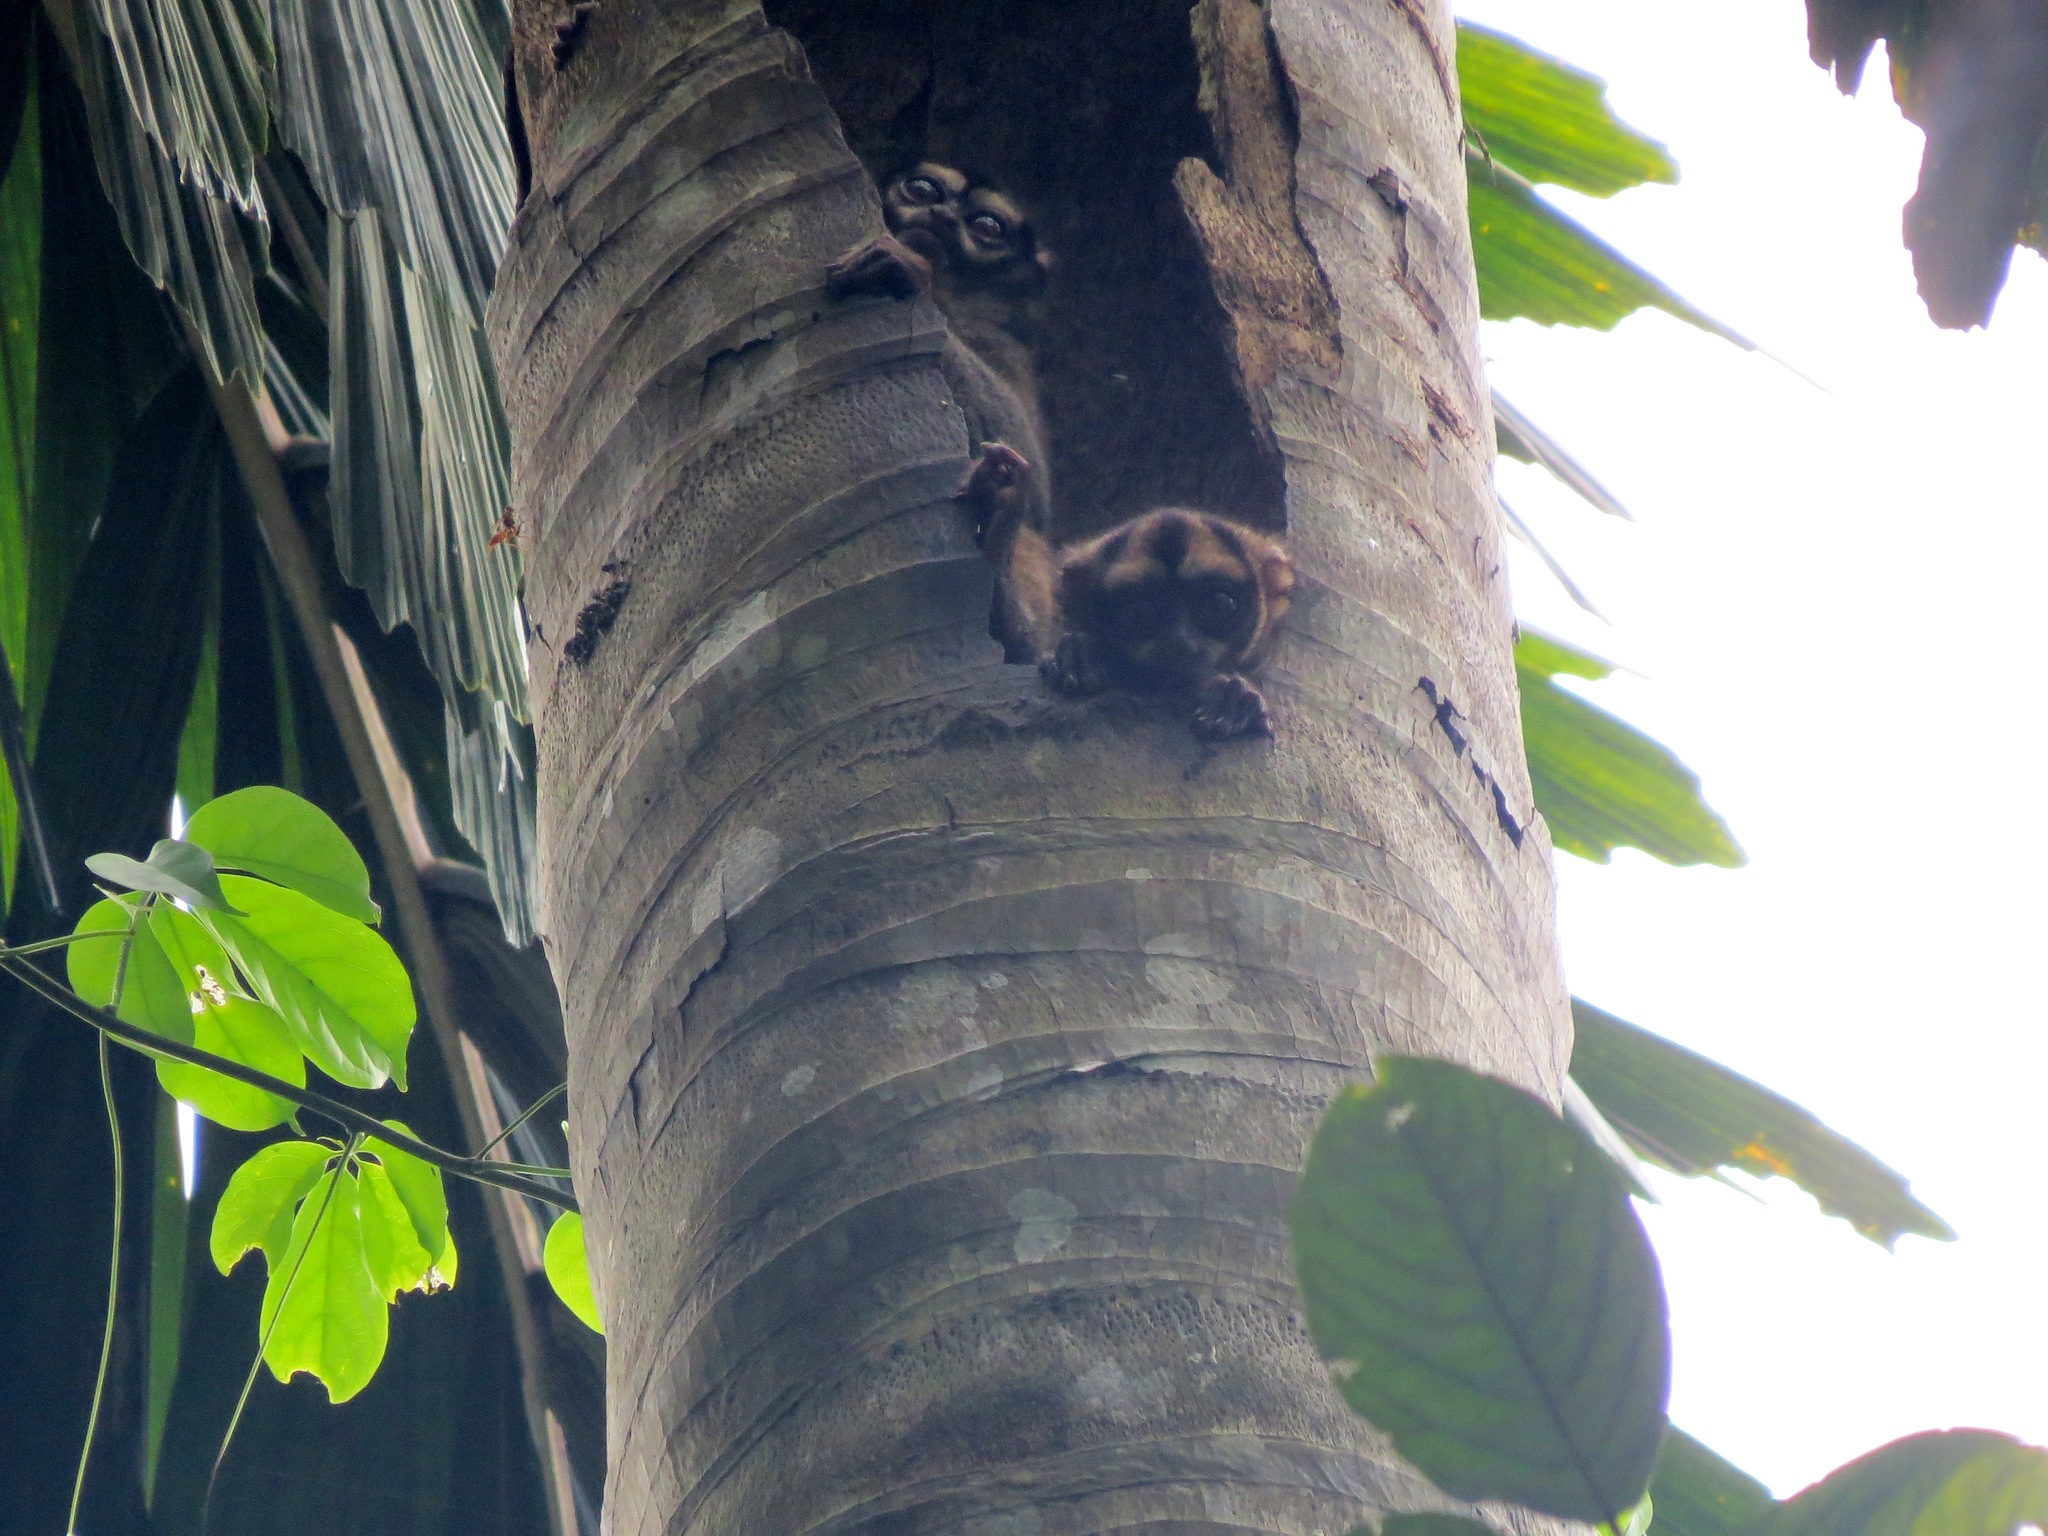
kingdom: Animalia
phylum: Chordata
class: Mammalia
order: Primates
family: Aotidae
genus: Aotus
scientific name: Aotus vociferans
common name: Noisy night monkey
